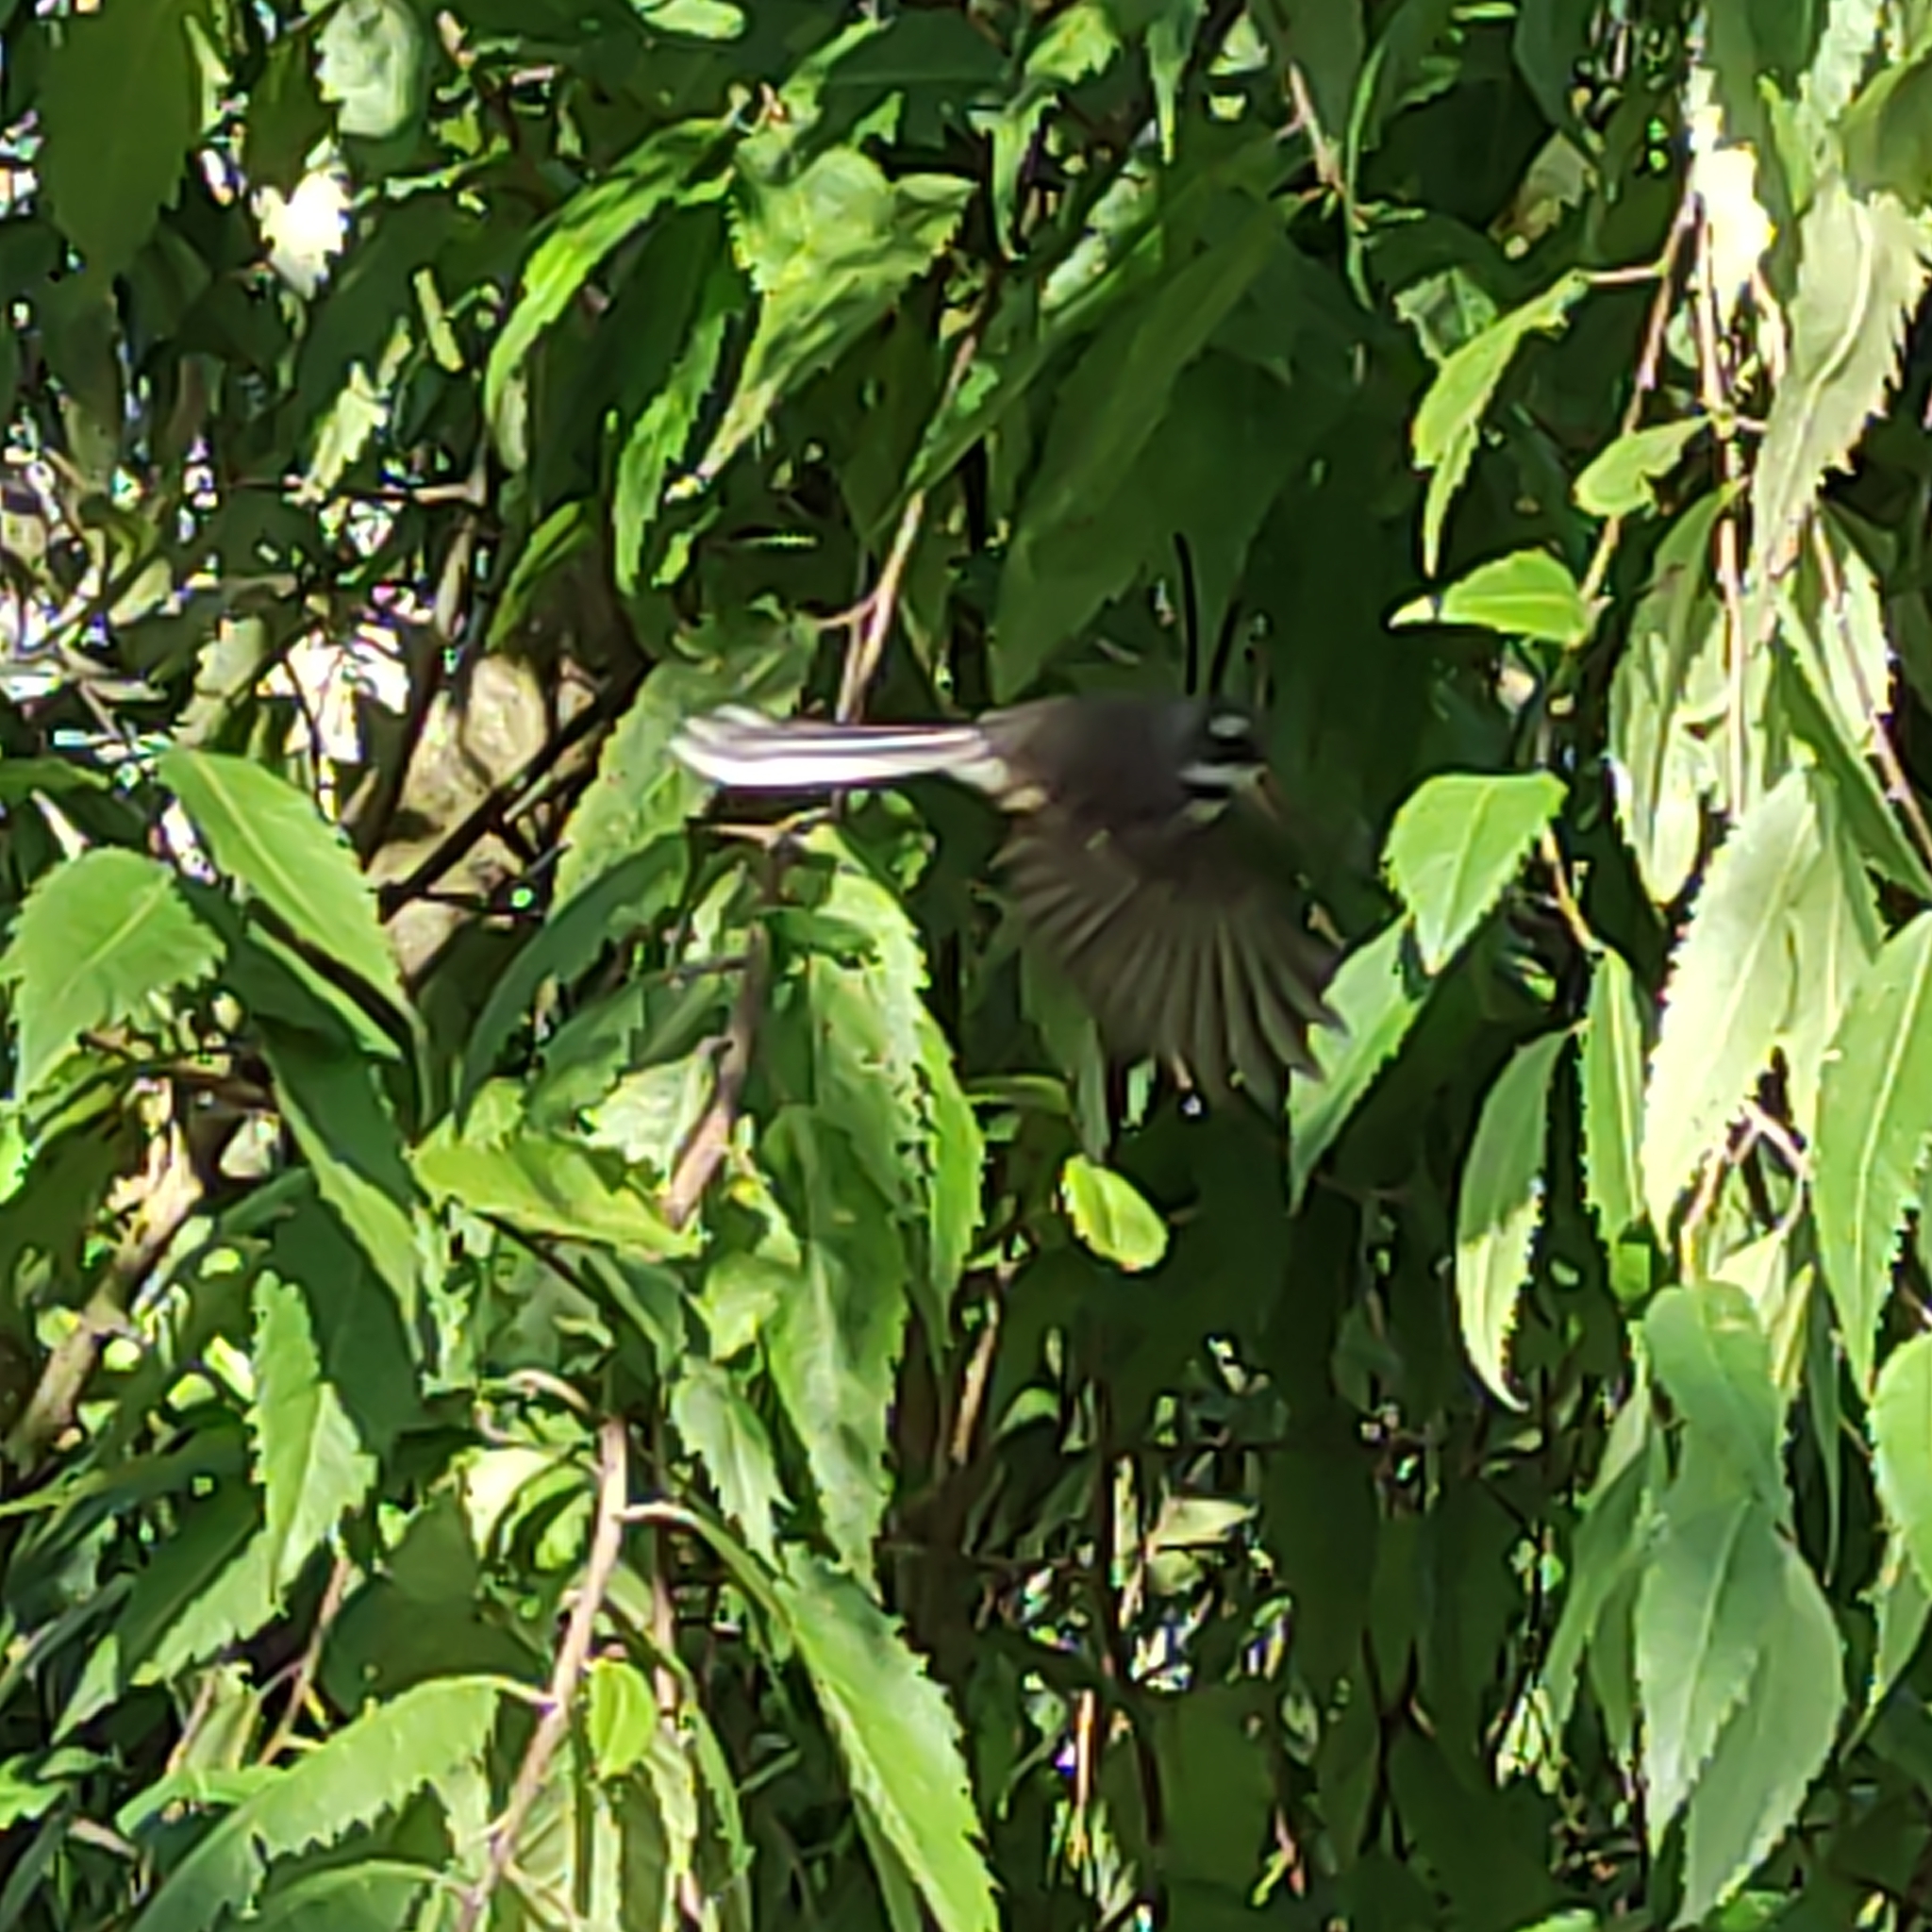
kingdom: Animalia
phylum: Chordata
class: Aves
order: Passeriformes
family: Rhipiduridae
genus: Rhipidura
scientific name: Rhipidura fuliginosa
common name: New zealand fantail
